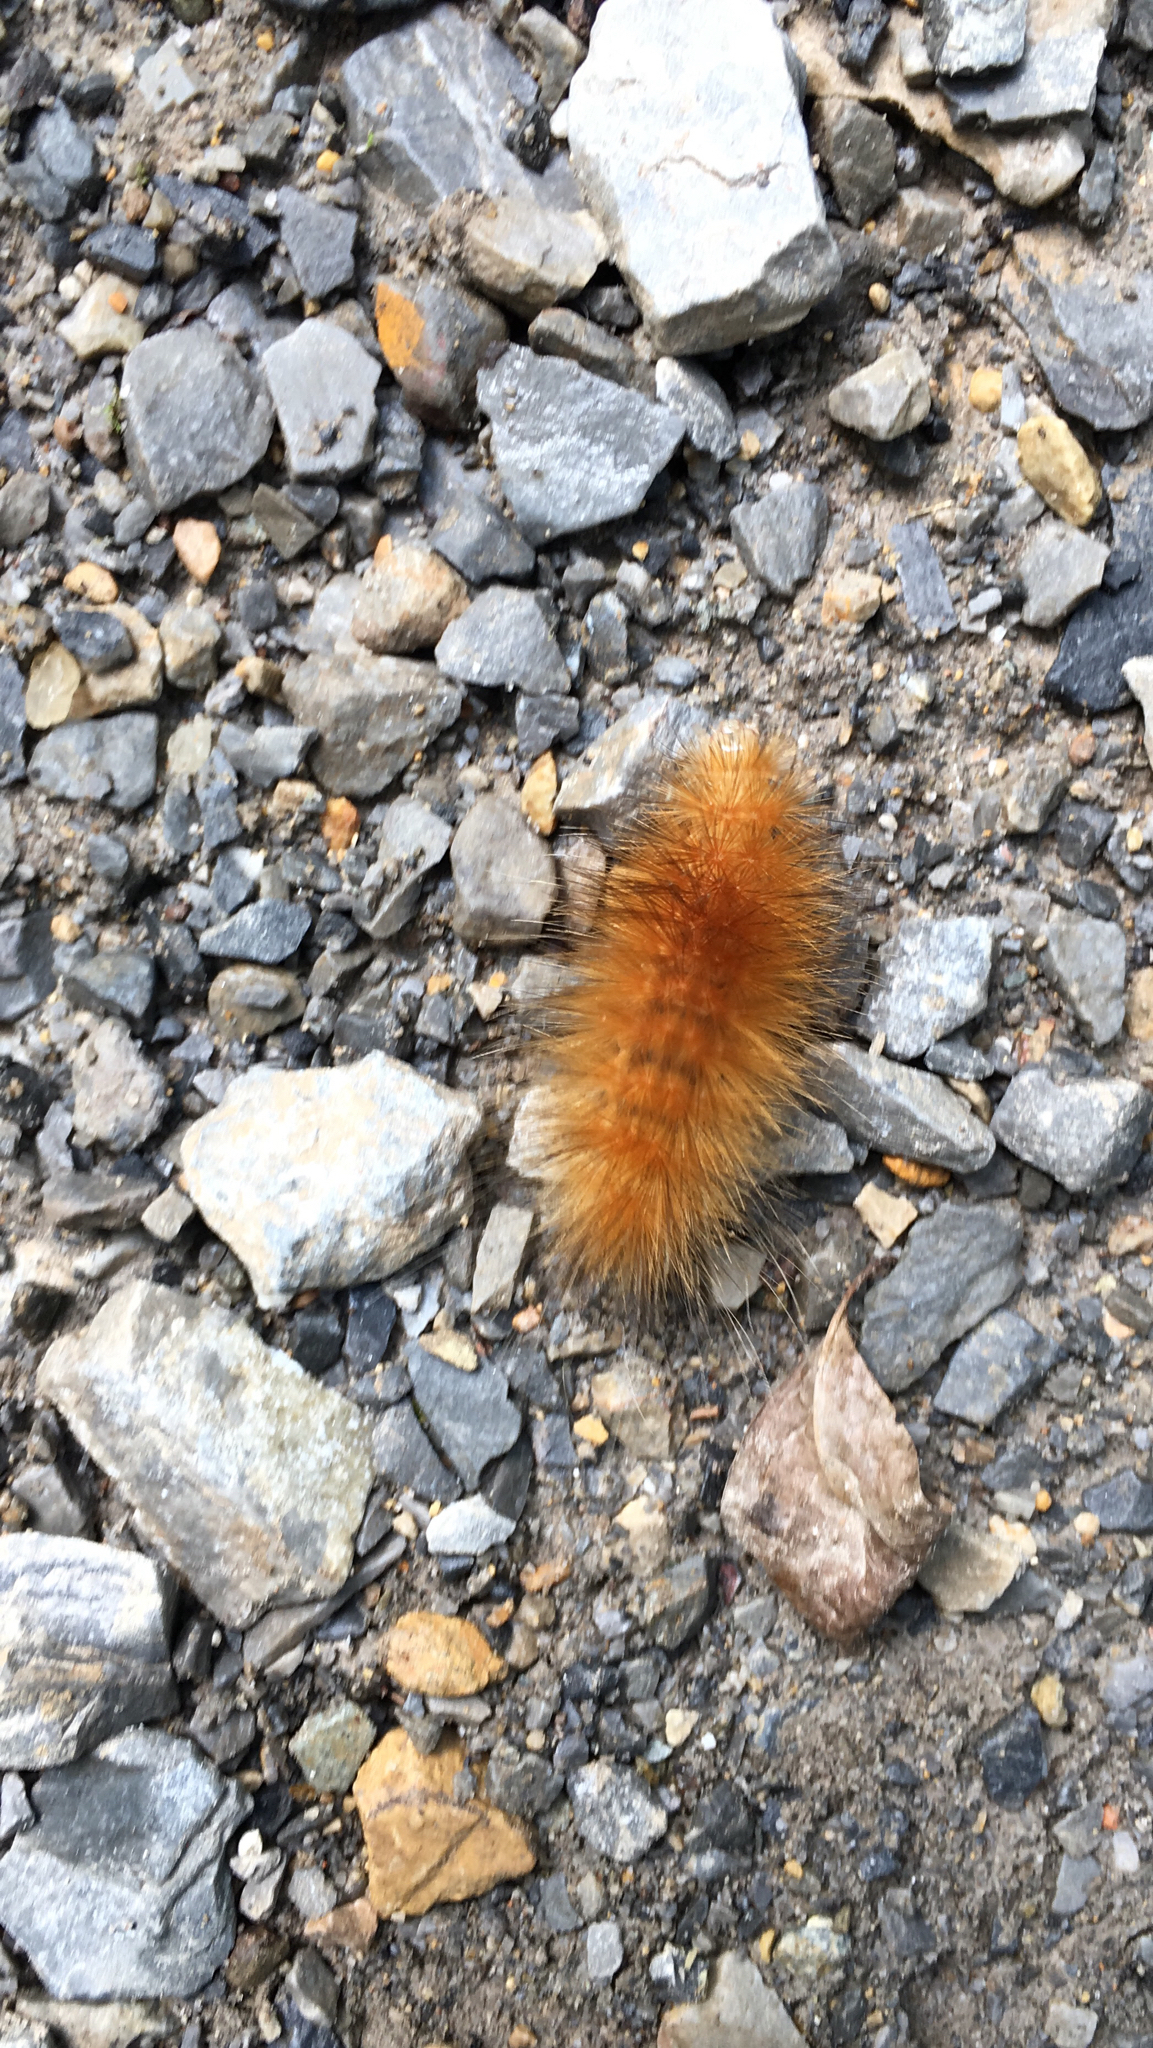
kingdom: Animalia
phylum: Arthropoda
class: Insecta
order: Lepidoptera
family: Erebidae
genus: Spilosoma
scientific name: Spilosoma virginica
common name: Virginia tiger moth
